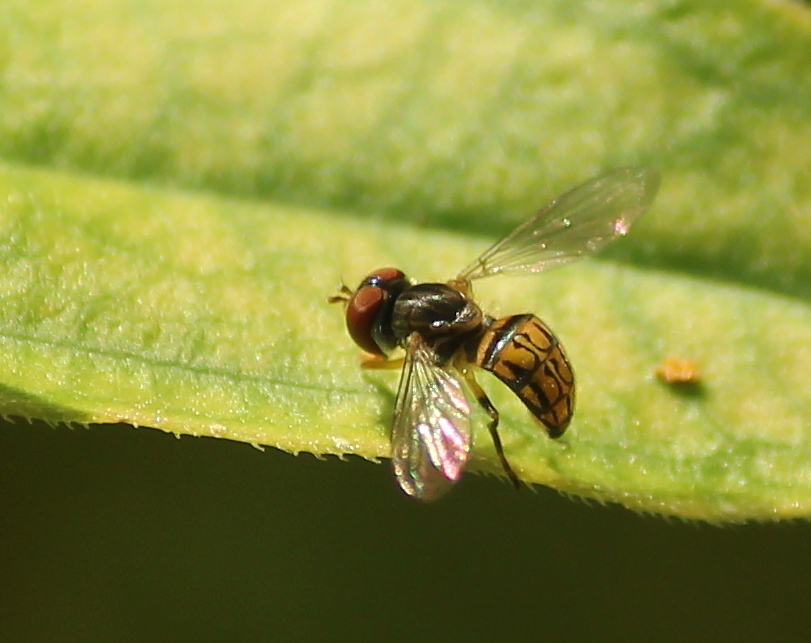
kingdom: Animalia
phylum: Arthropoda
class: Insecta
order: Diptera
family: Syrphidae
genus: Toxomerus
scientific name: Toxomerus boscii
